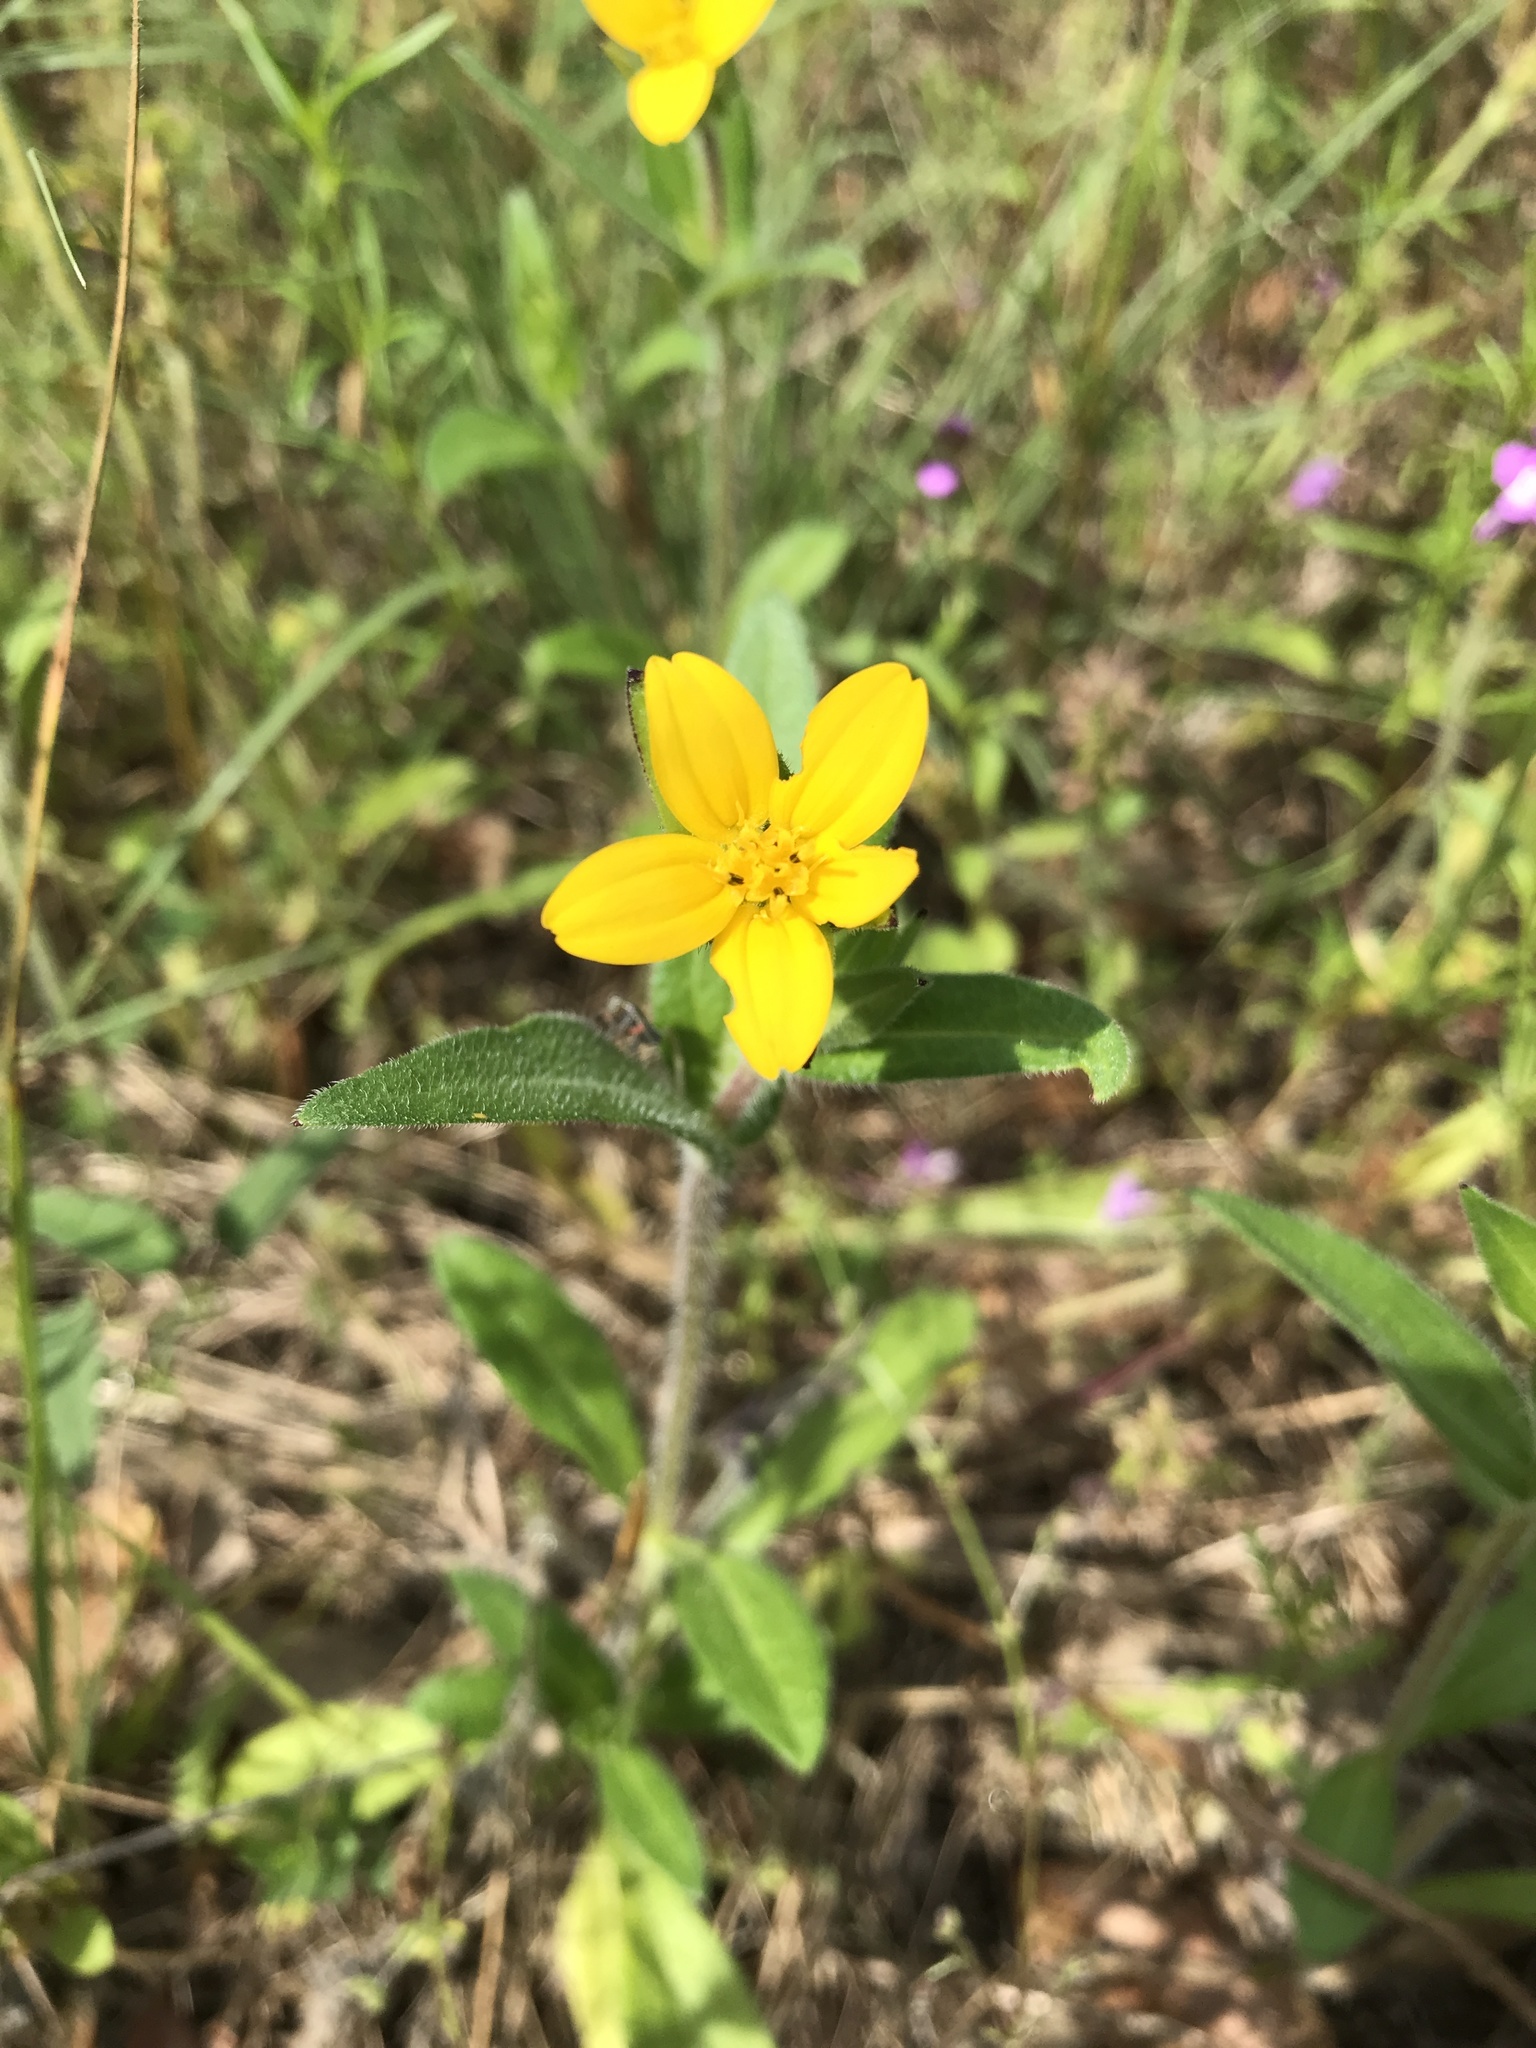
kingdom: Plantae
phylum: Tracheophyta
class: Magnoliopsida
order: Asterales
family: Asteraceae
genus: Lindheimera
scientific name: Lindheimera texana
